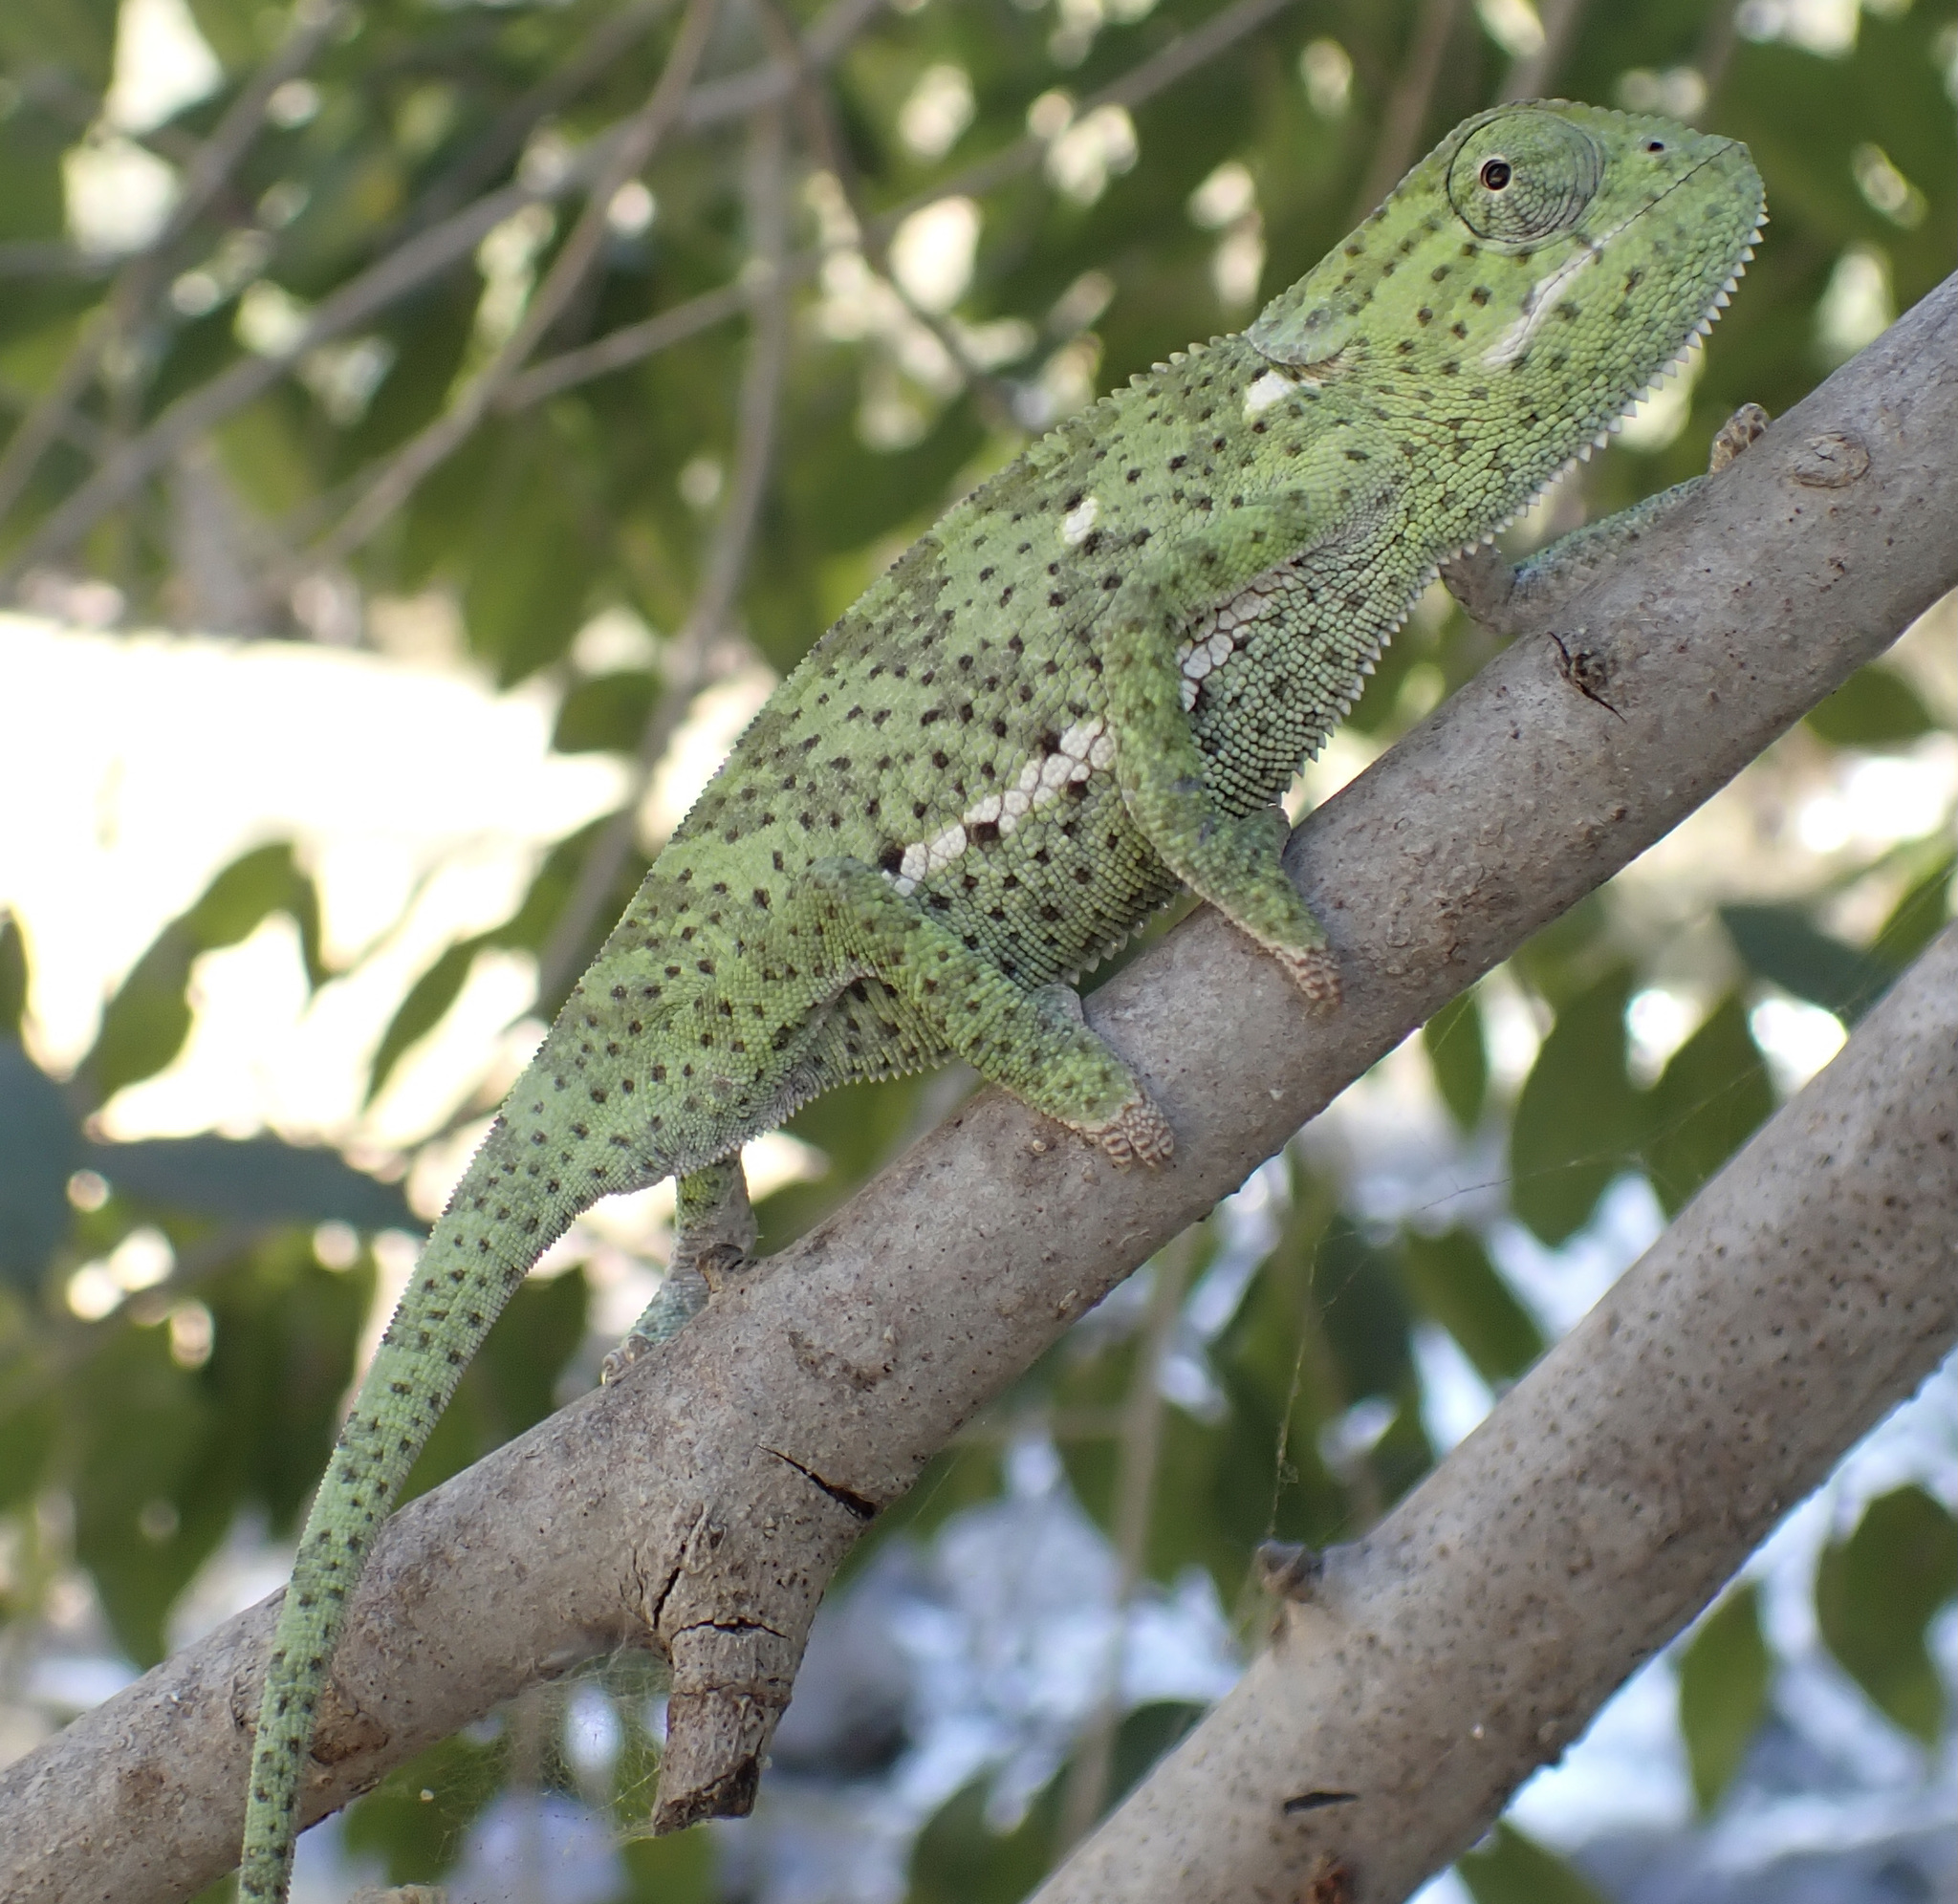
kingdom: Animalia
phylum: Chordata
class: Squamata
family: Chamaeleonidae
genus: Chamaeleo
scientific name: Chamaeleo dilepis
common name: Flapneck chameleon
